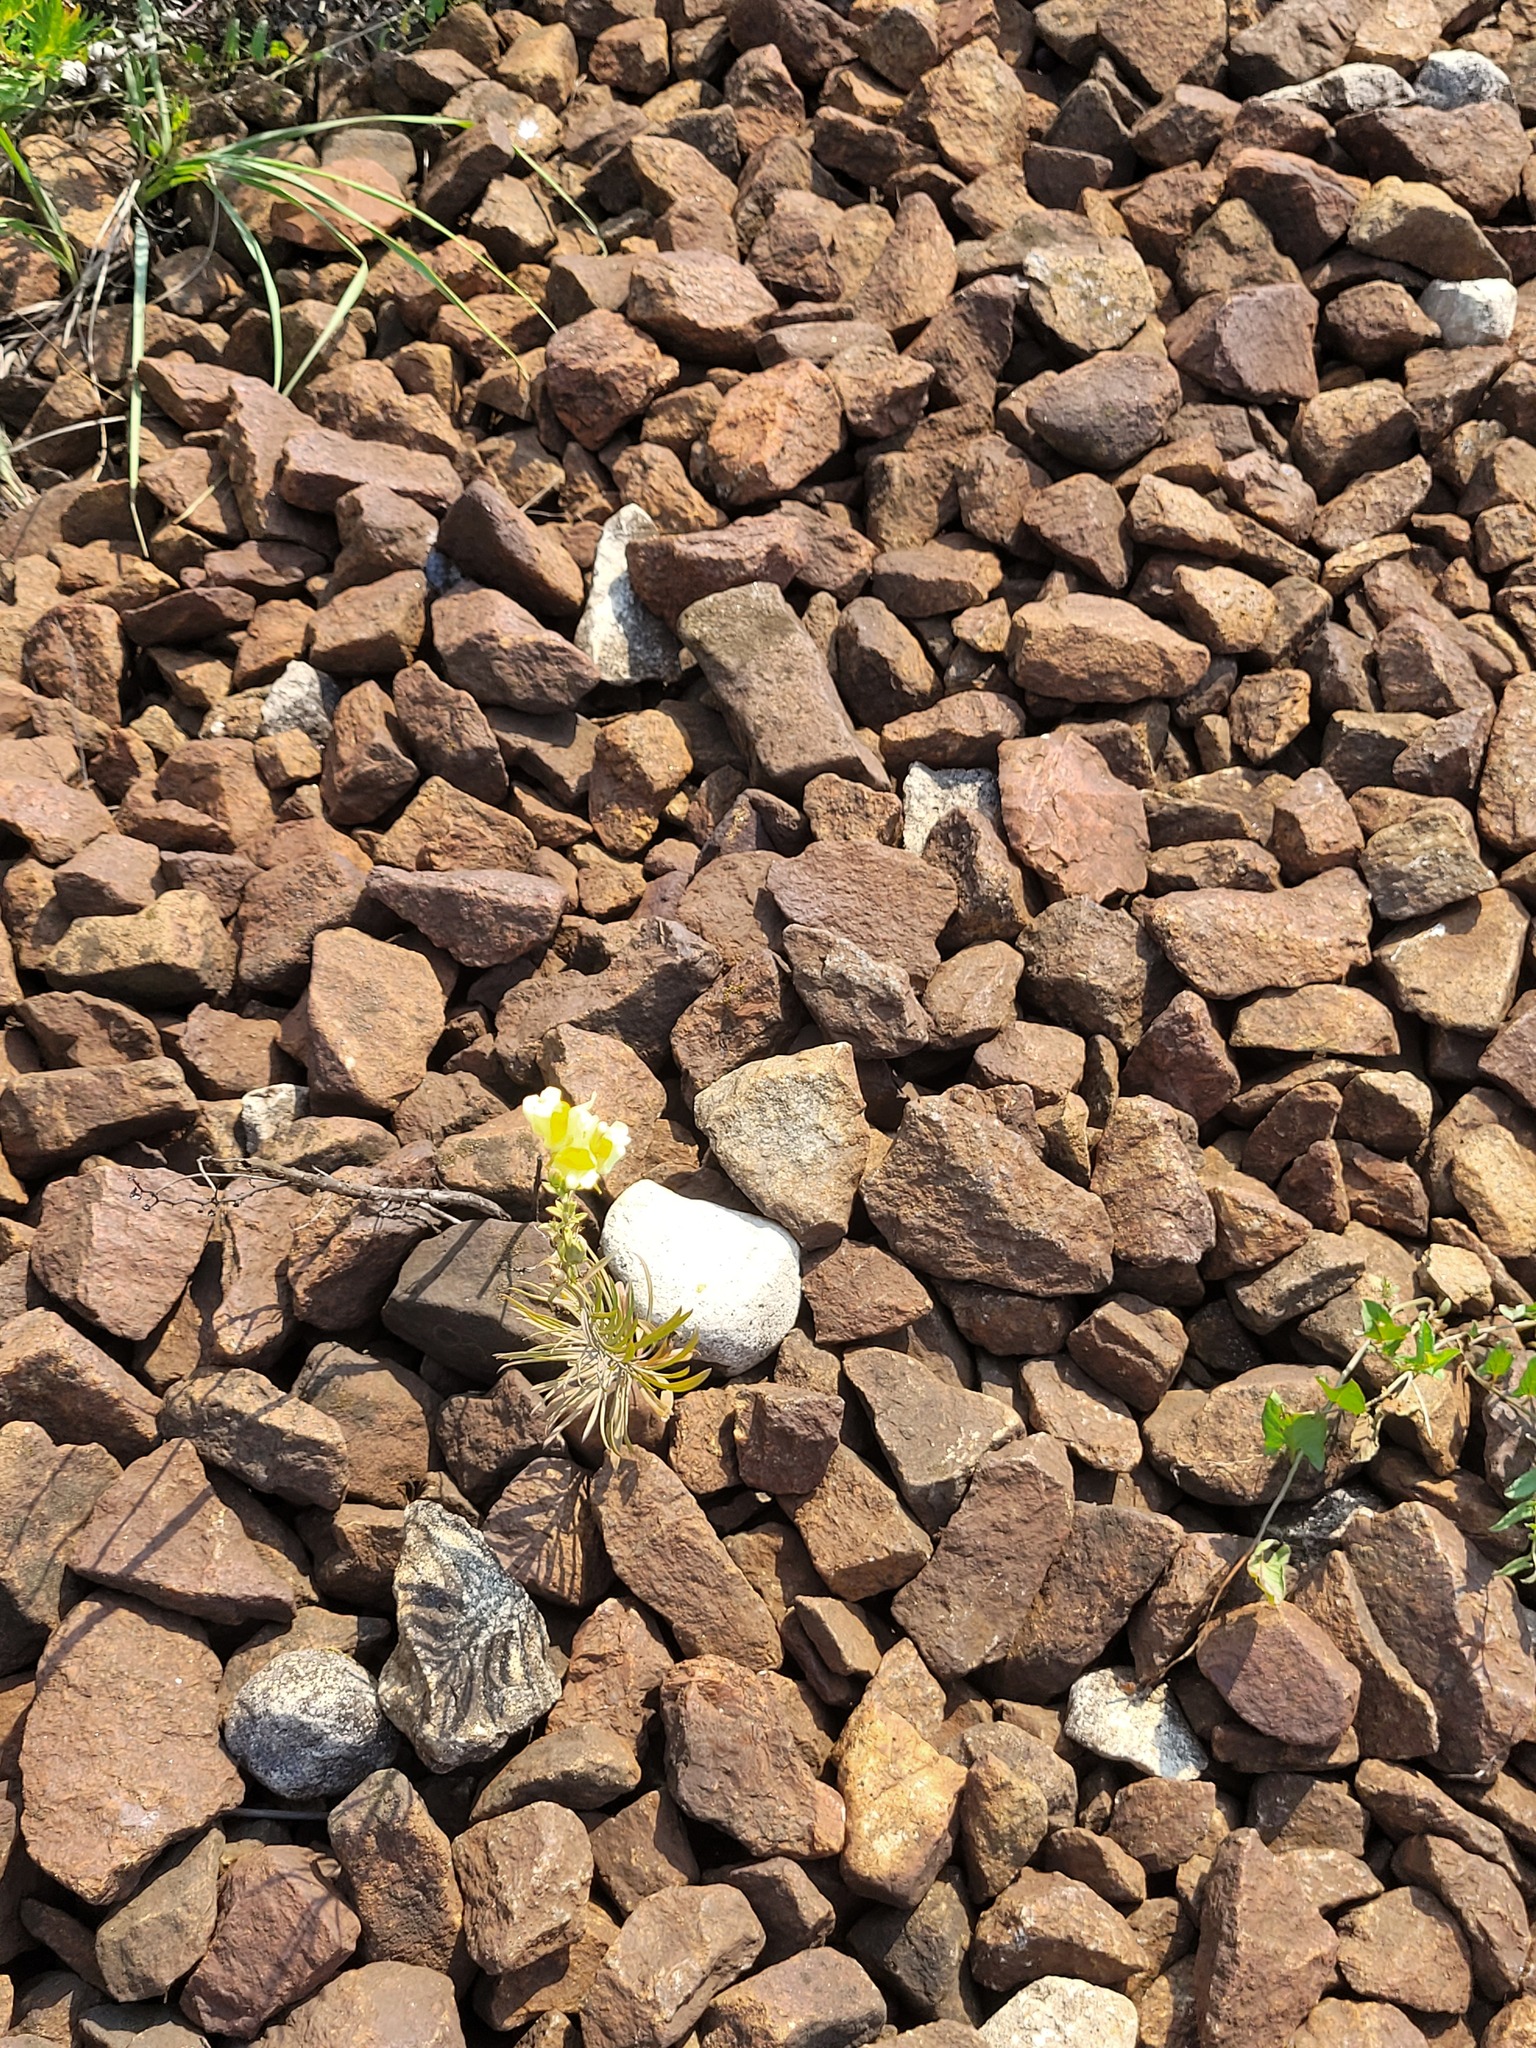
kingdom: Plantae
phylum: Tracheophyta
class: Magnoliopsida
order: Lamiales
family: Plantaginaceae
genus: Linaria
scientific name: Linaria vulgaris
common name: Butter and eggs
